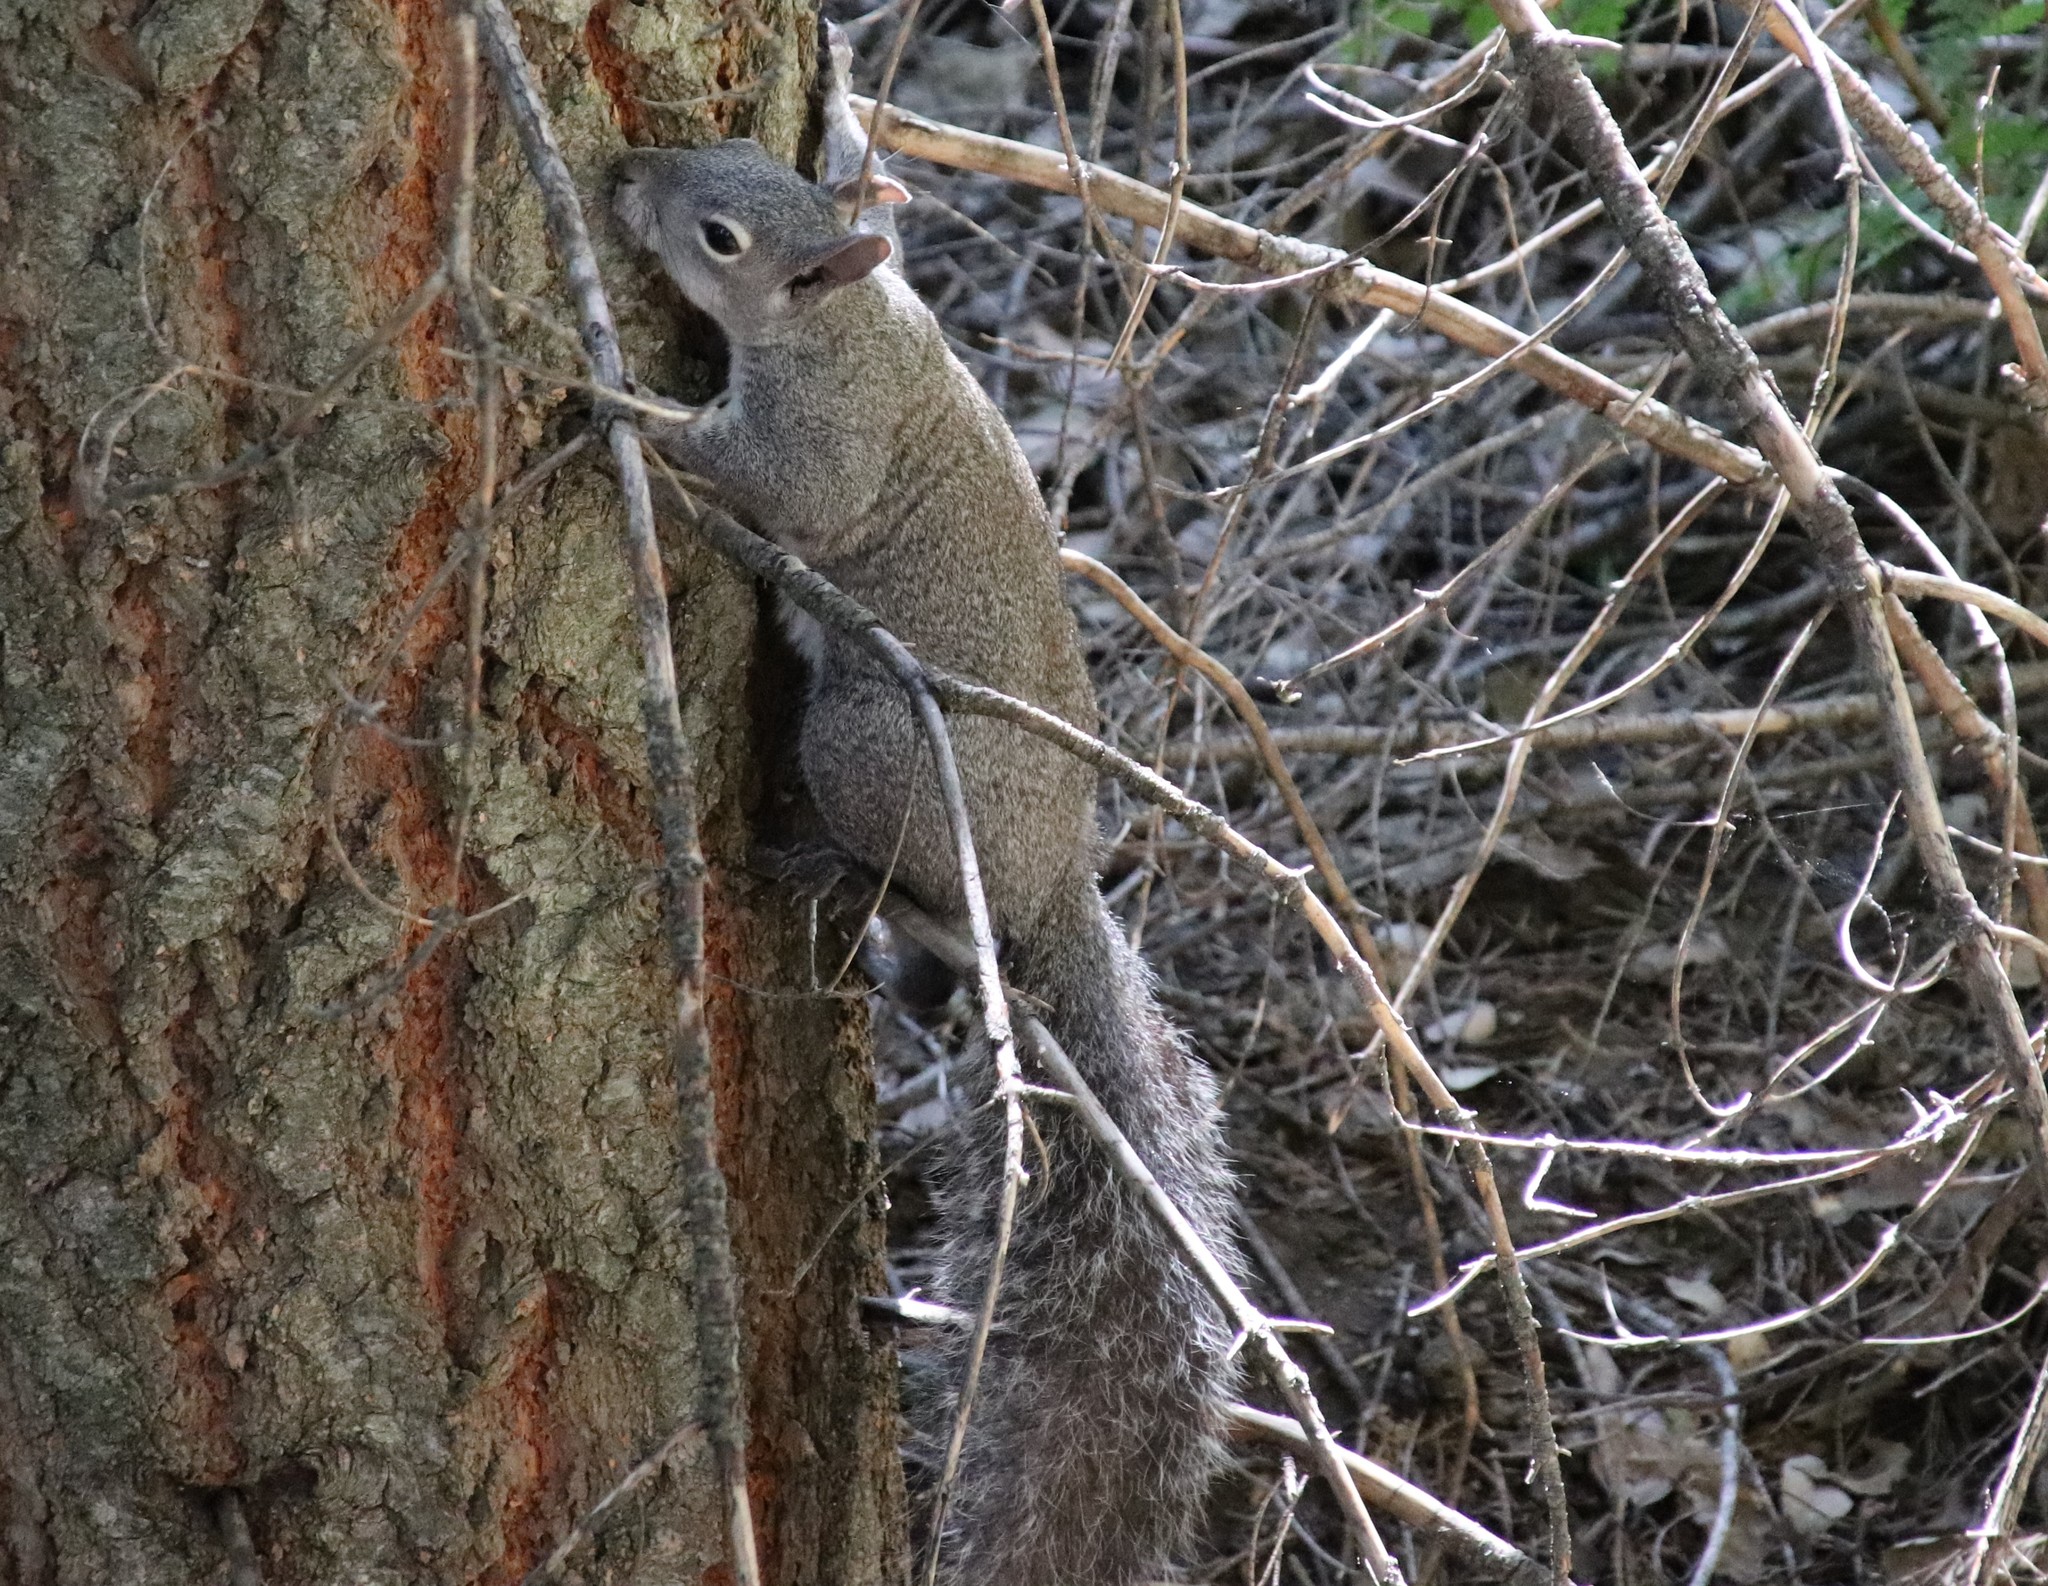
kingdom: Animalia
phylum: Chordata
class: Mammalia
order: Rodentia
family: Sciuridae
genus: Sciurus
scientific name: Sciurus griseus
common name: Western gray squirrel
